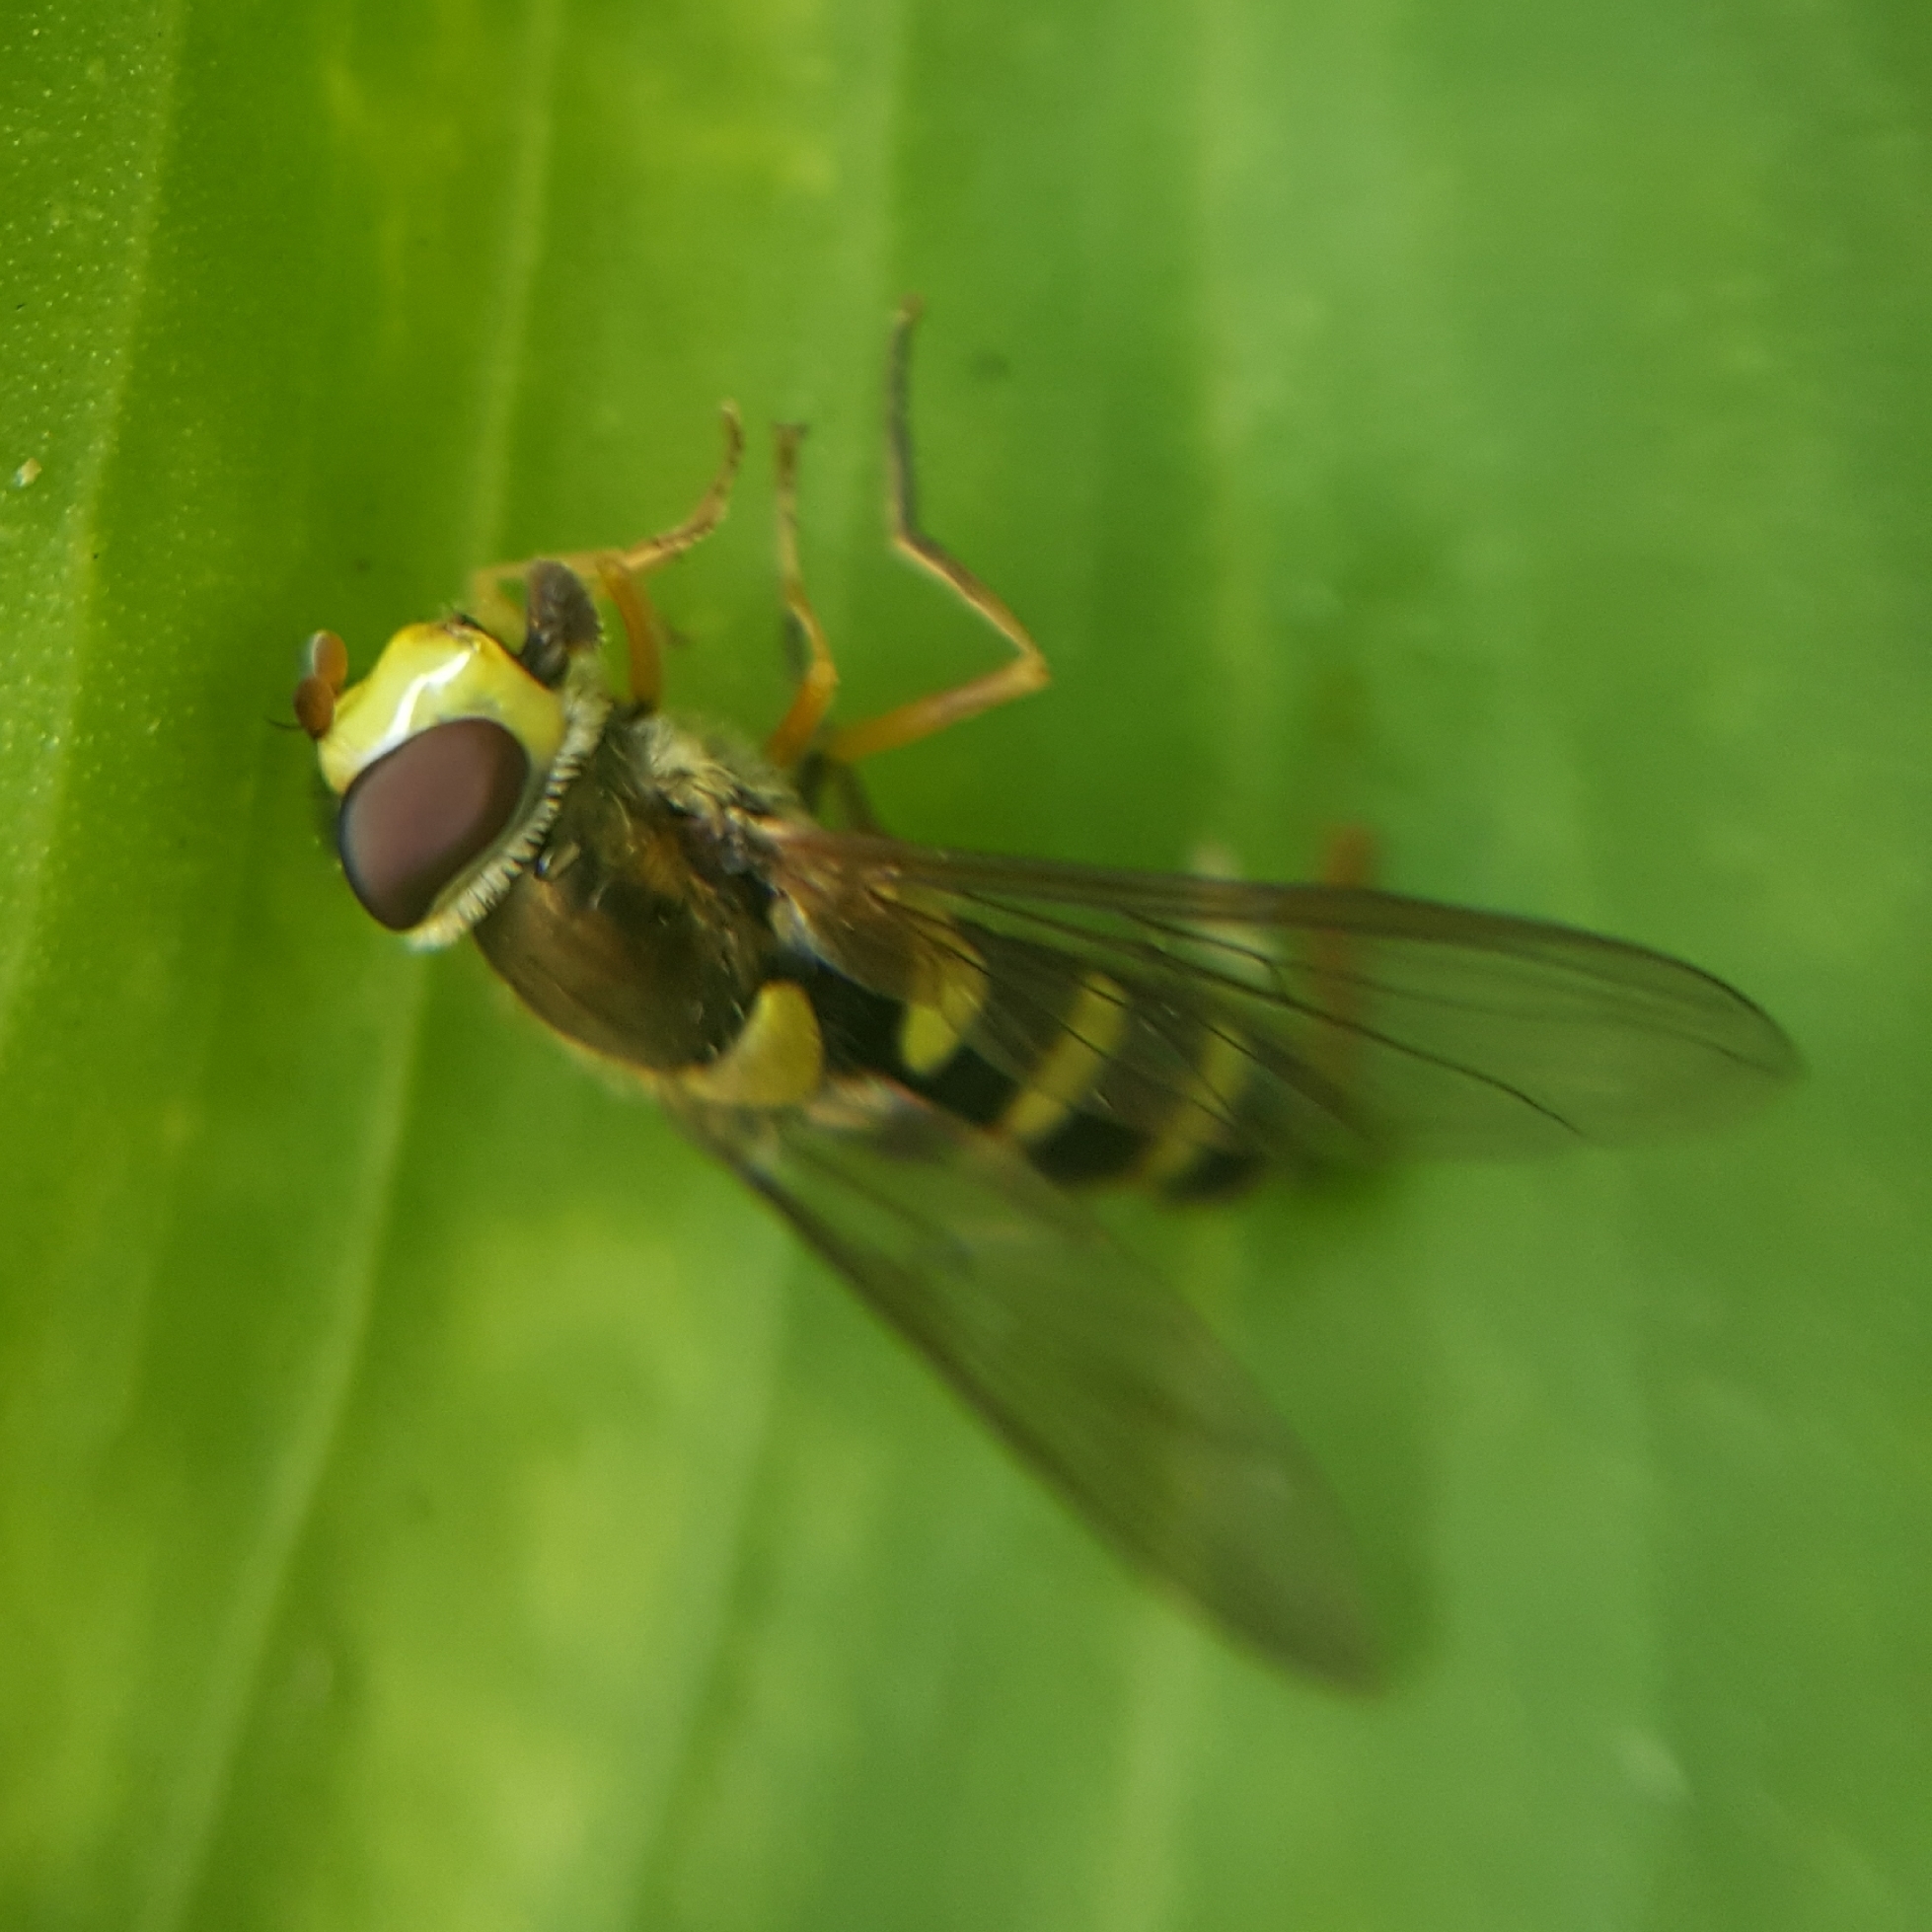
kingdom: Animalia
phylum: Arthropoda
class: Insecta
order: Diptera
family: Syrphidae
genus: Syrphus
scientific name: Syrphus opinator
